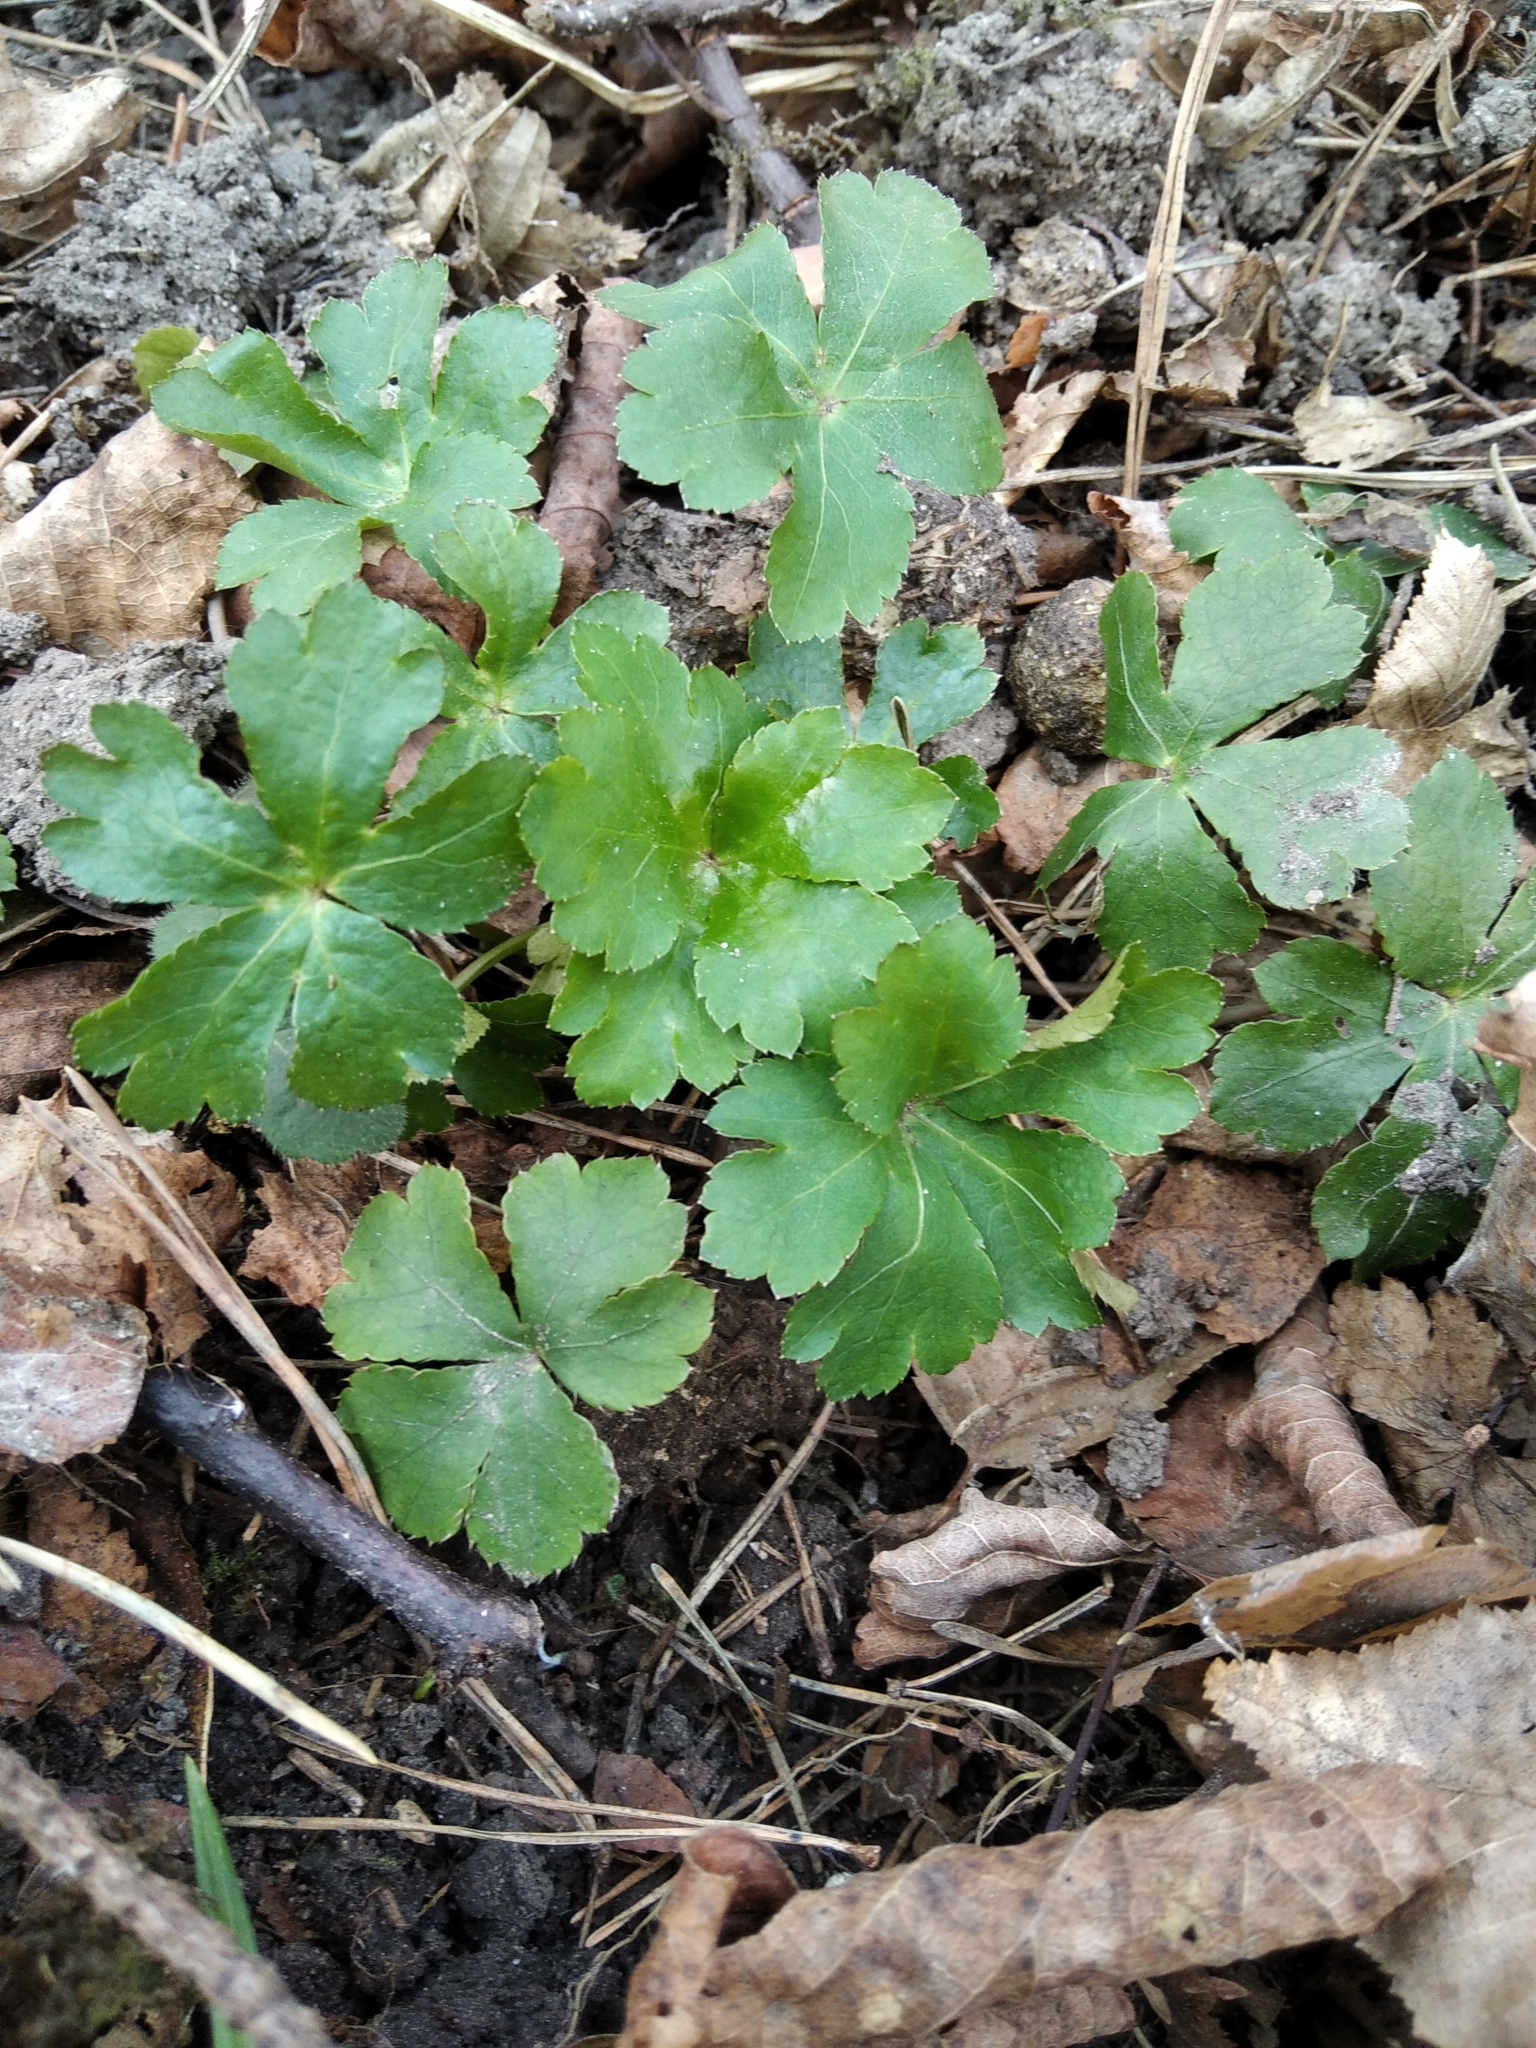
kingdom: Plantae
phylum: Tracheophyta
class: Magnoliopsida
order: Apiales
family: Apiaceae
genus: Sanicula
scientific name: Sanicula europaea
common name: Sanicle
